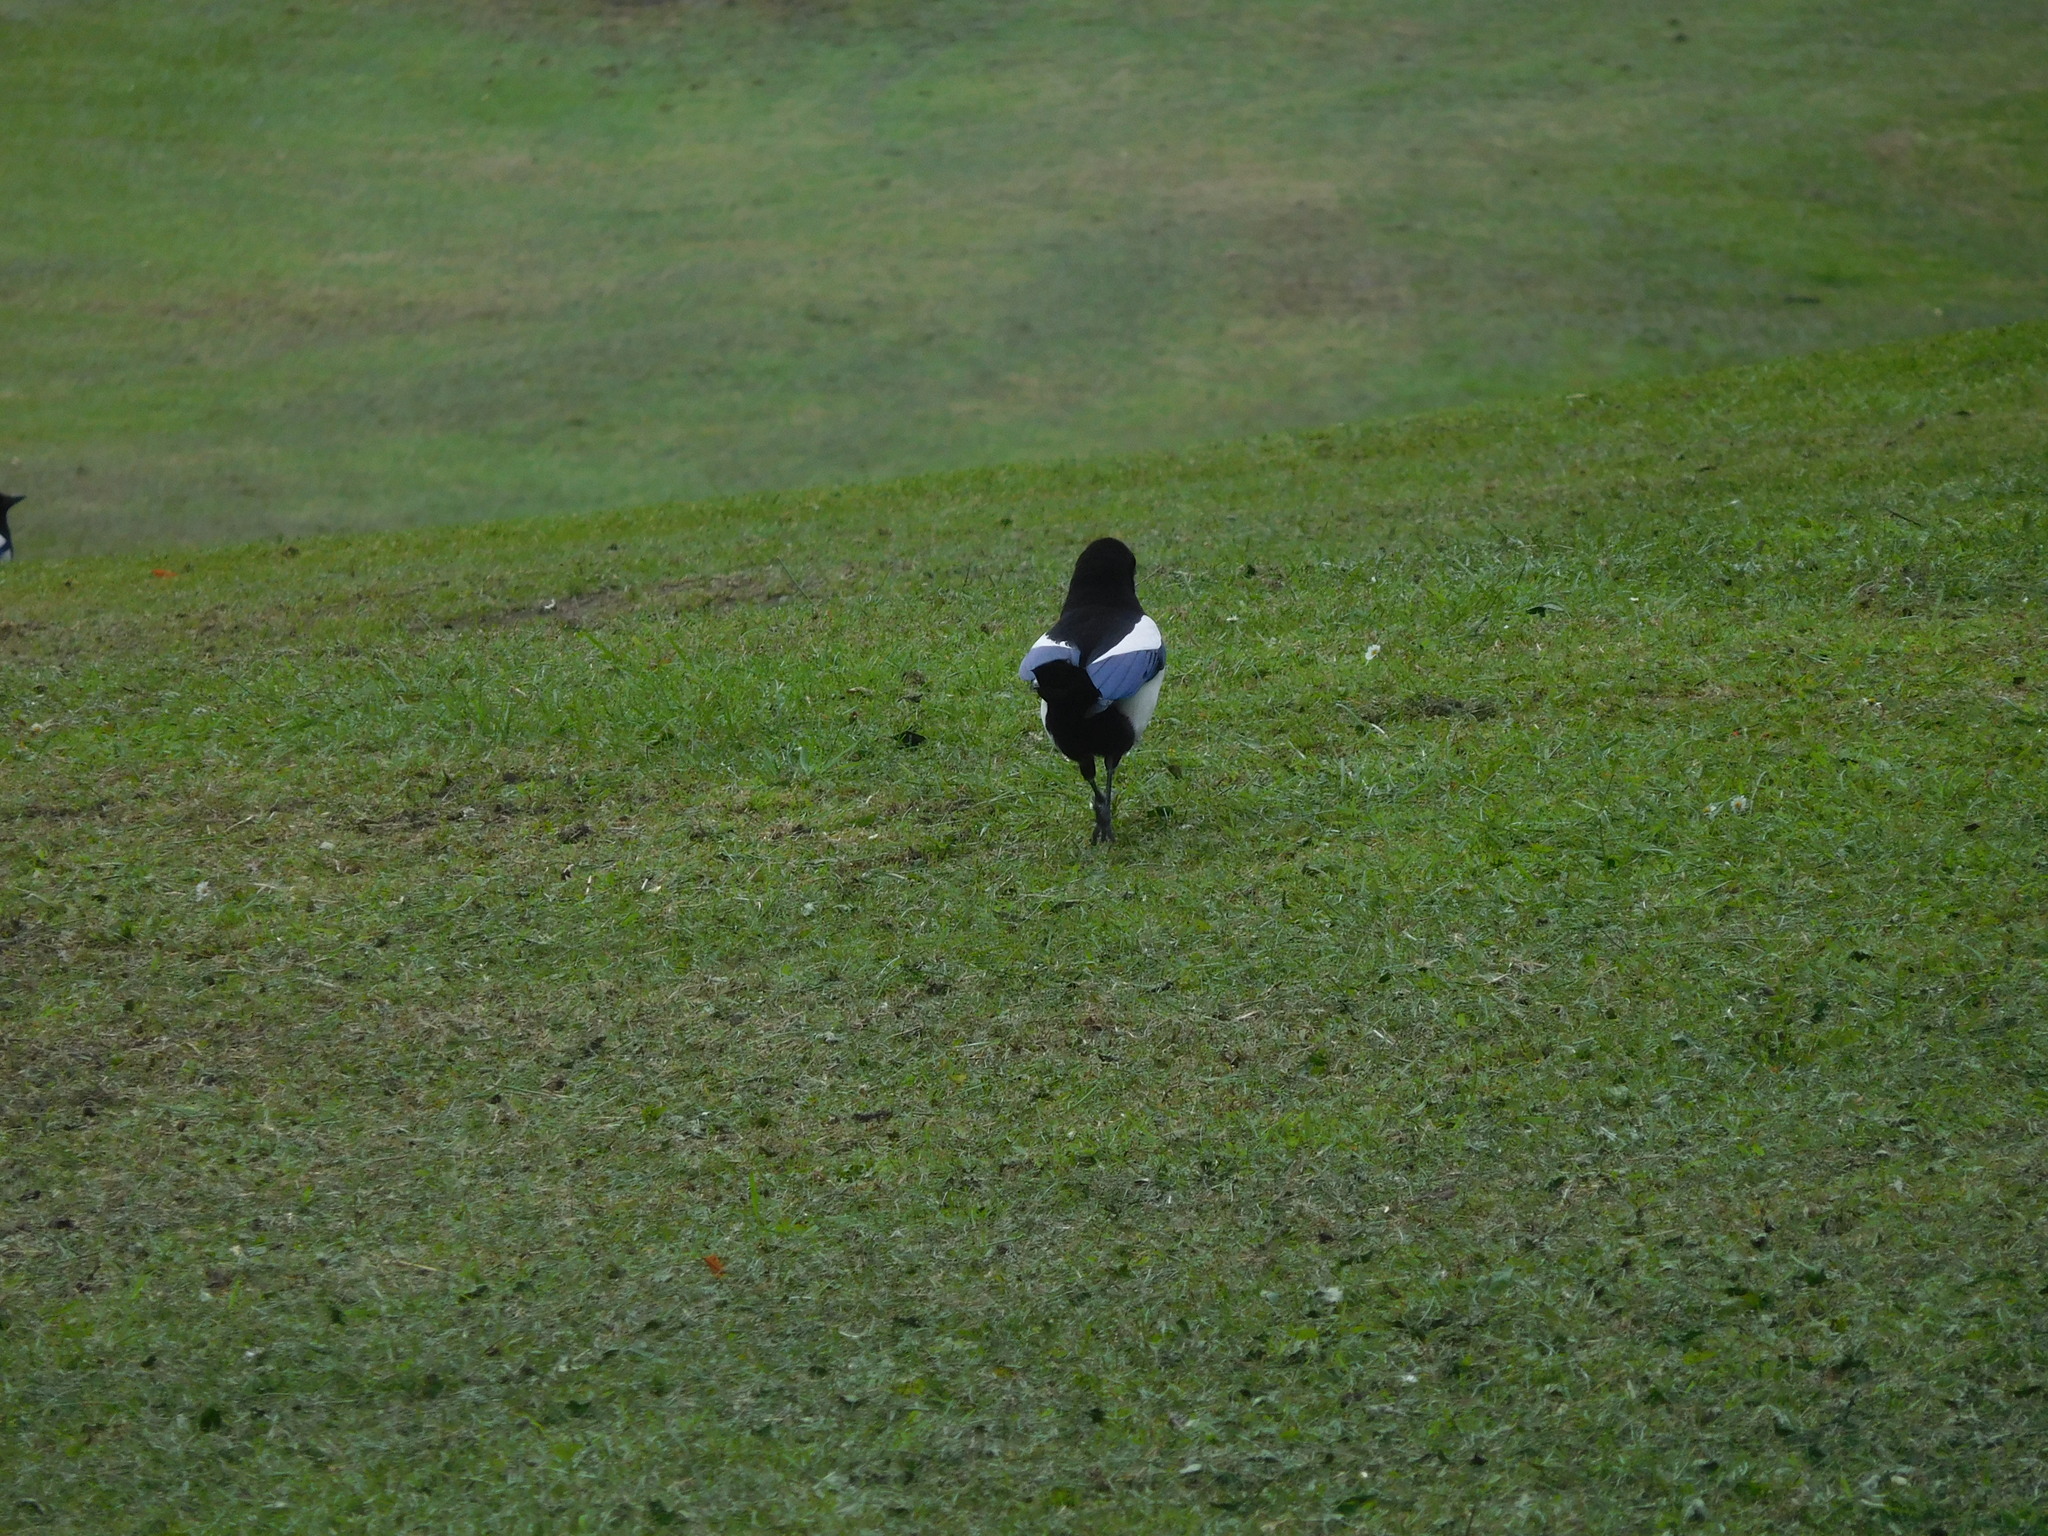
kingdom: Animalia
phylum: Chordata
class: Aves
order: Passeriformes
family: Corvidae
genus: Pica
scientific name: Pica pica
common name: Eurasian magpie
